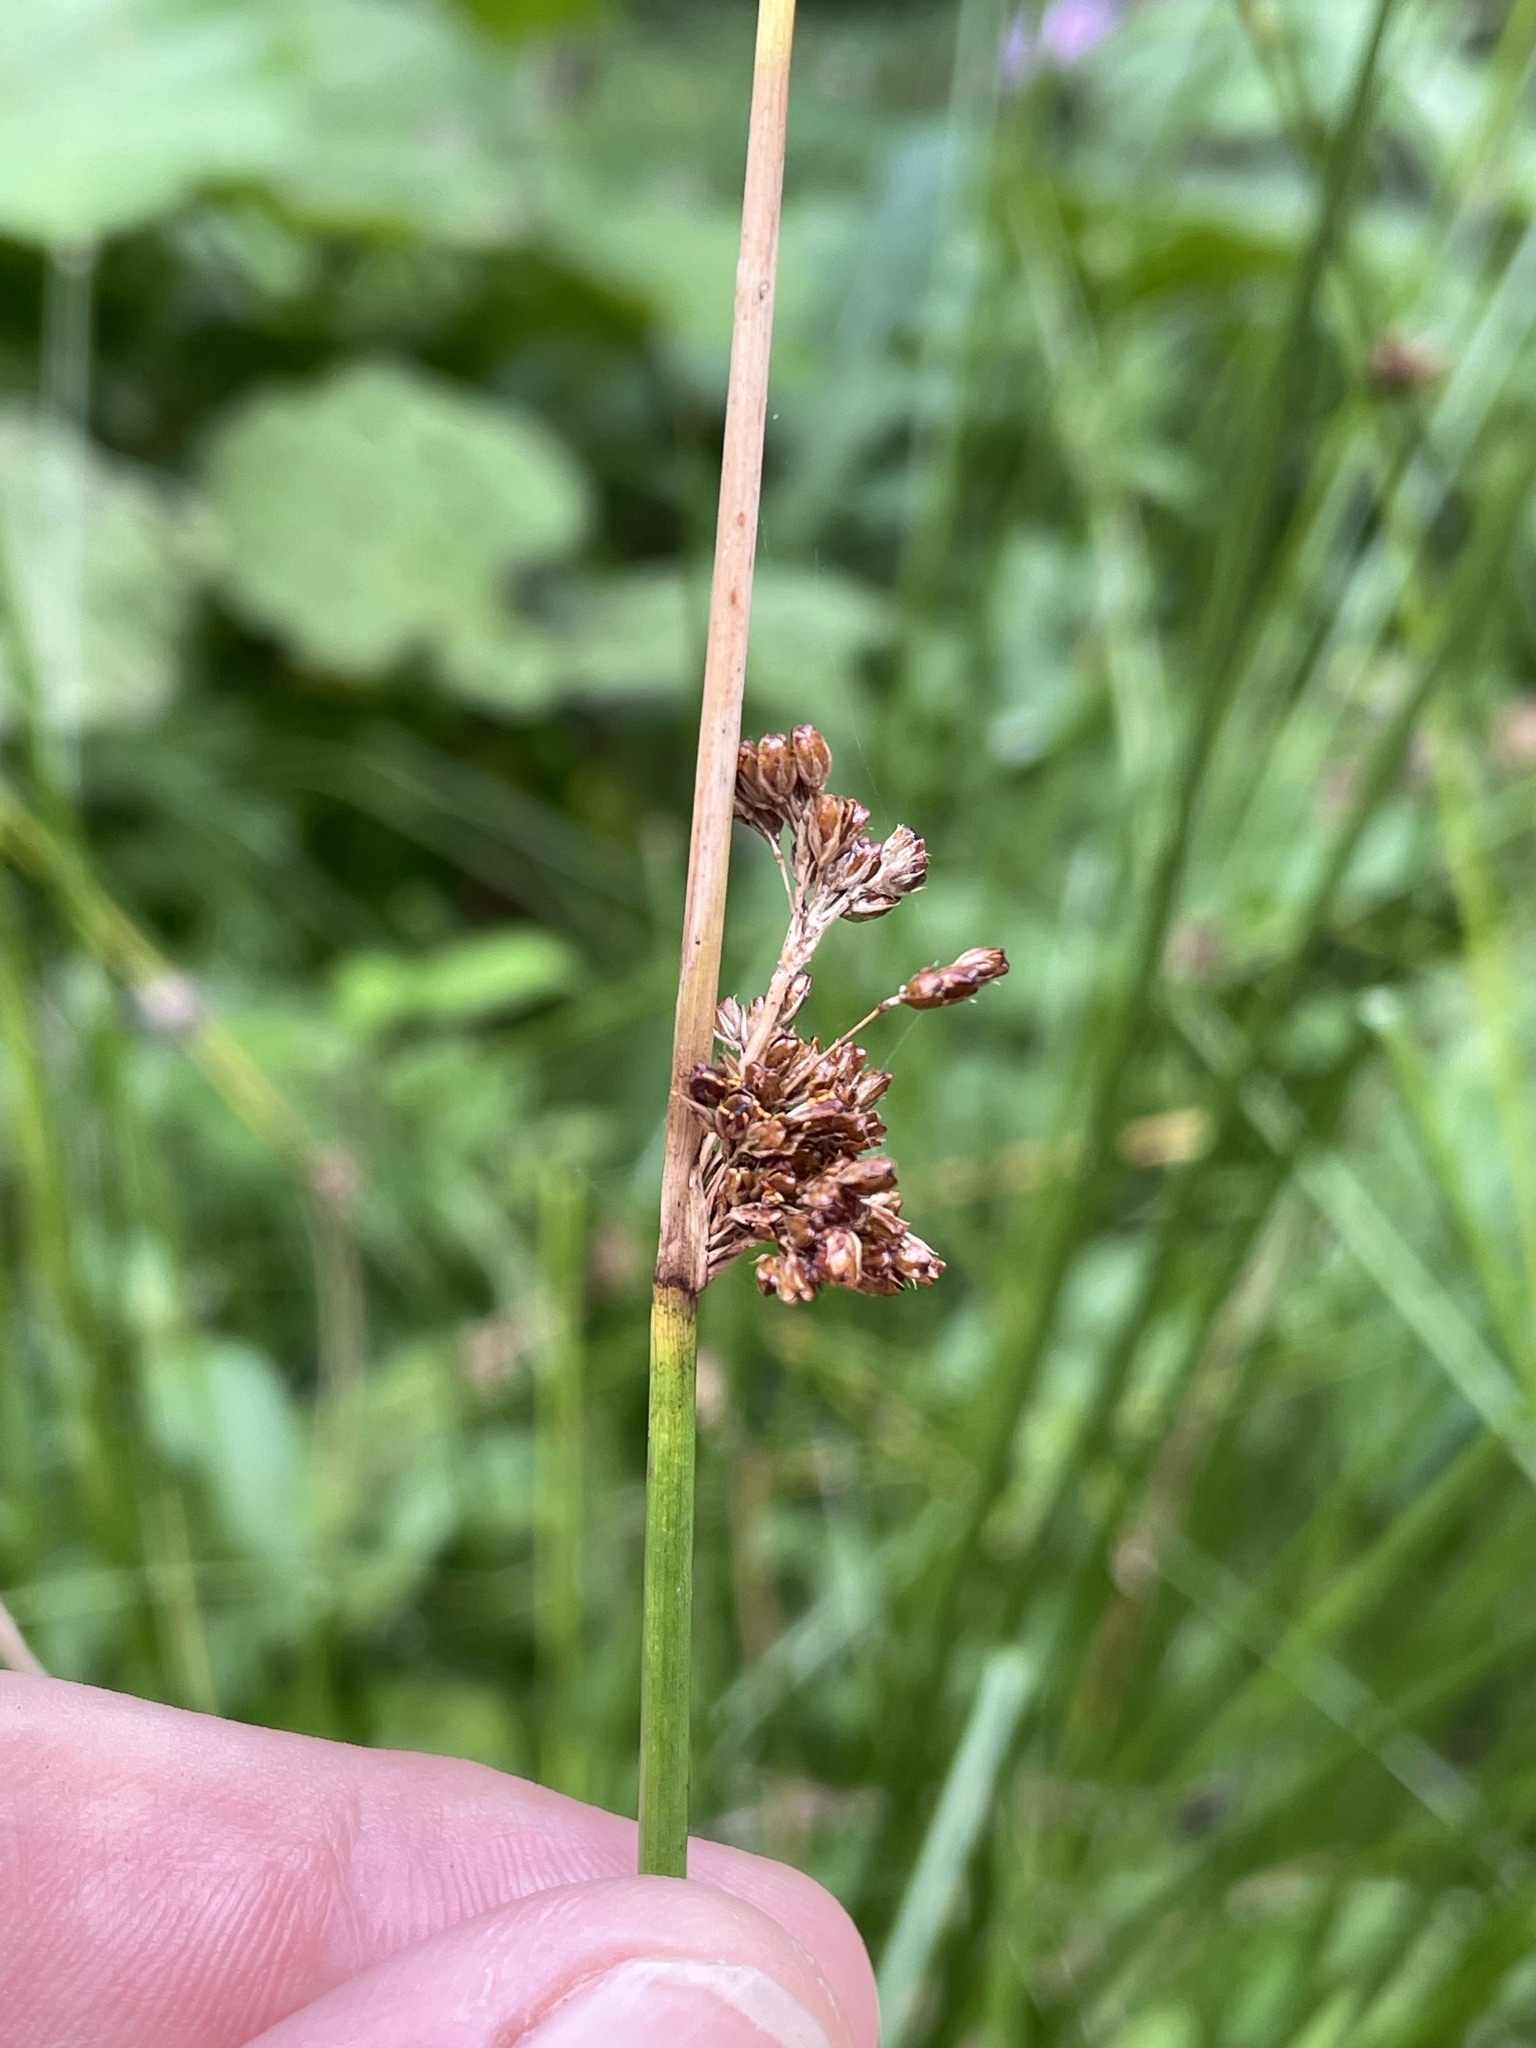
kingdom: Plantae
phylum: Tracheophyta
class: Liliopsida
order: Poales
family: Juncaceae
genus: Juncus
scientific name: Juncus effusus
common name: Soft rush
